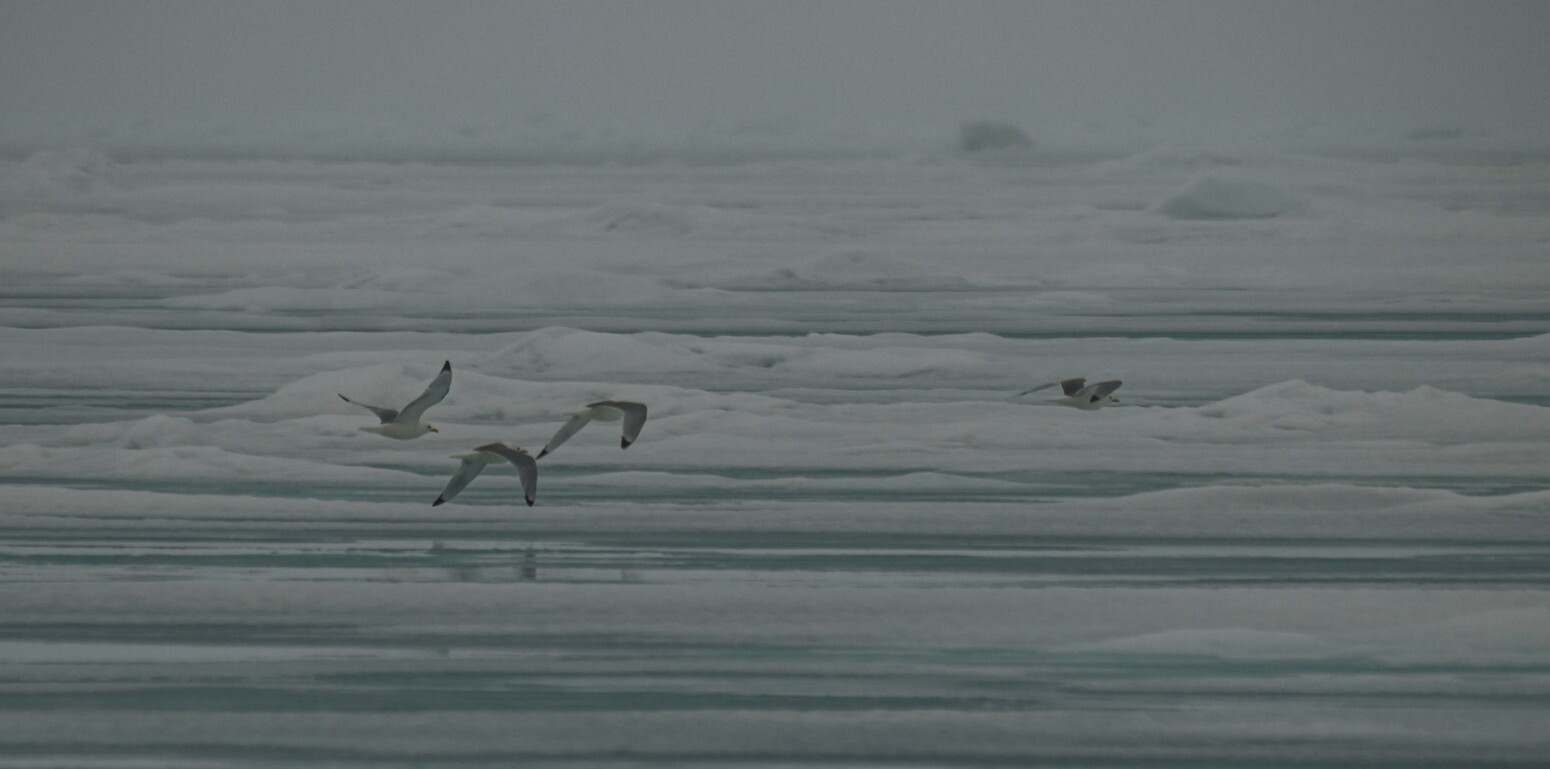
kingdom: Animalia
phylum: Chordata
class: Aves
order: Charadriiformes
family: Laridae
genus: Rissa
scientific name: Rissa tridactyla
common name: Black-legged kittiwake
